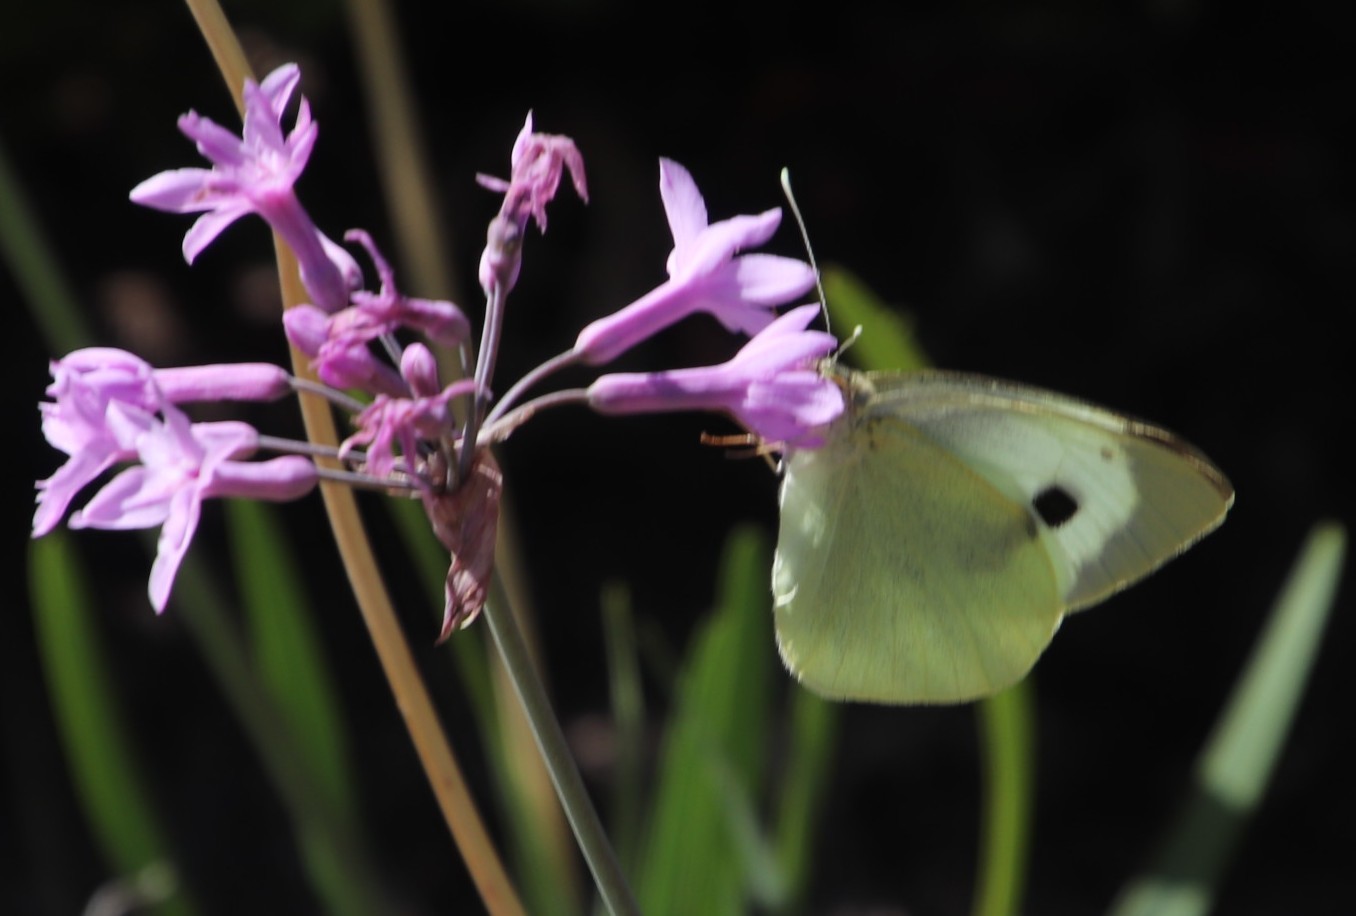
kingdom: Plantae
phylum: Tracheophyta
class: Liliopsida
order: Asparagales
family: Amaryllidaceae
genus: Tulbaghia
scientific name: Tulbaghia violacea
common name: Society garlic
